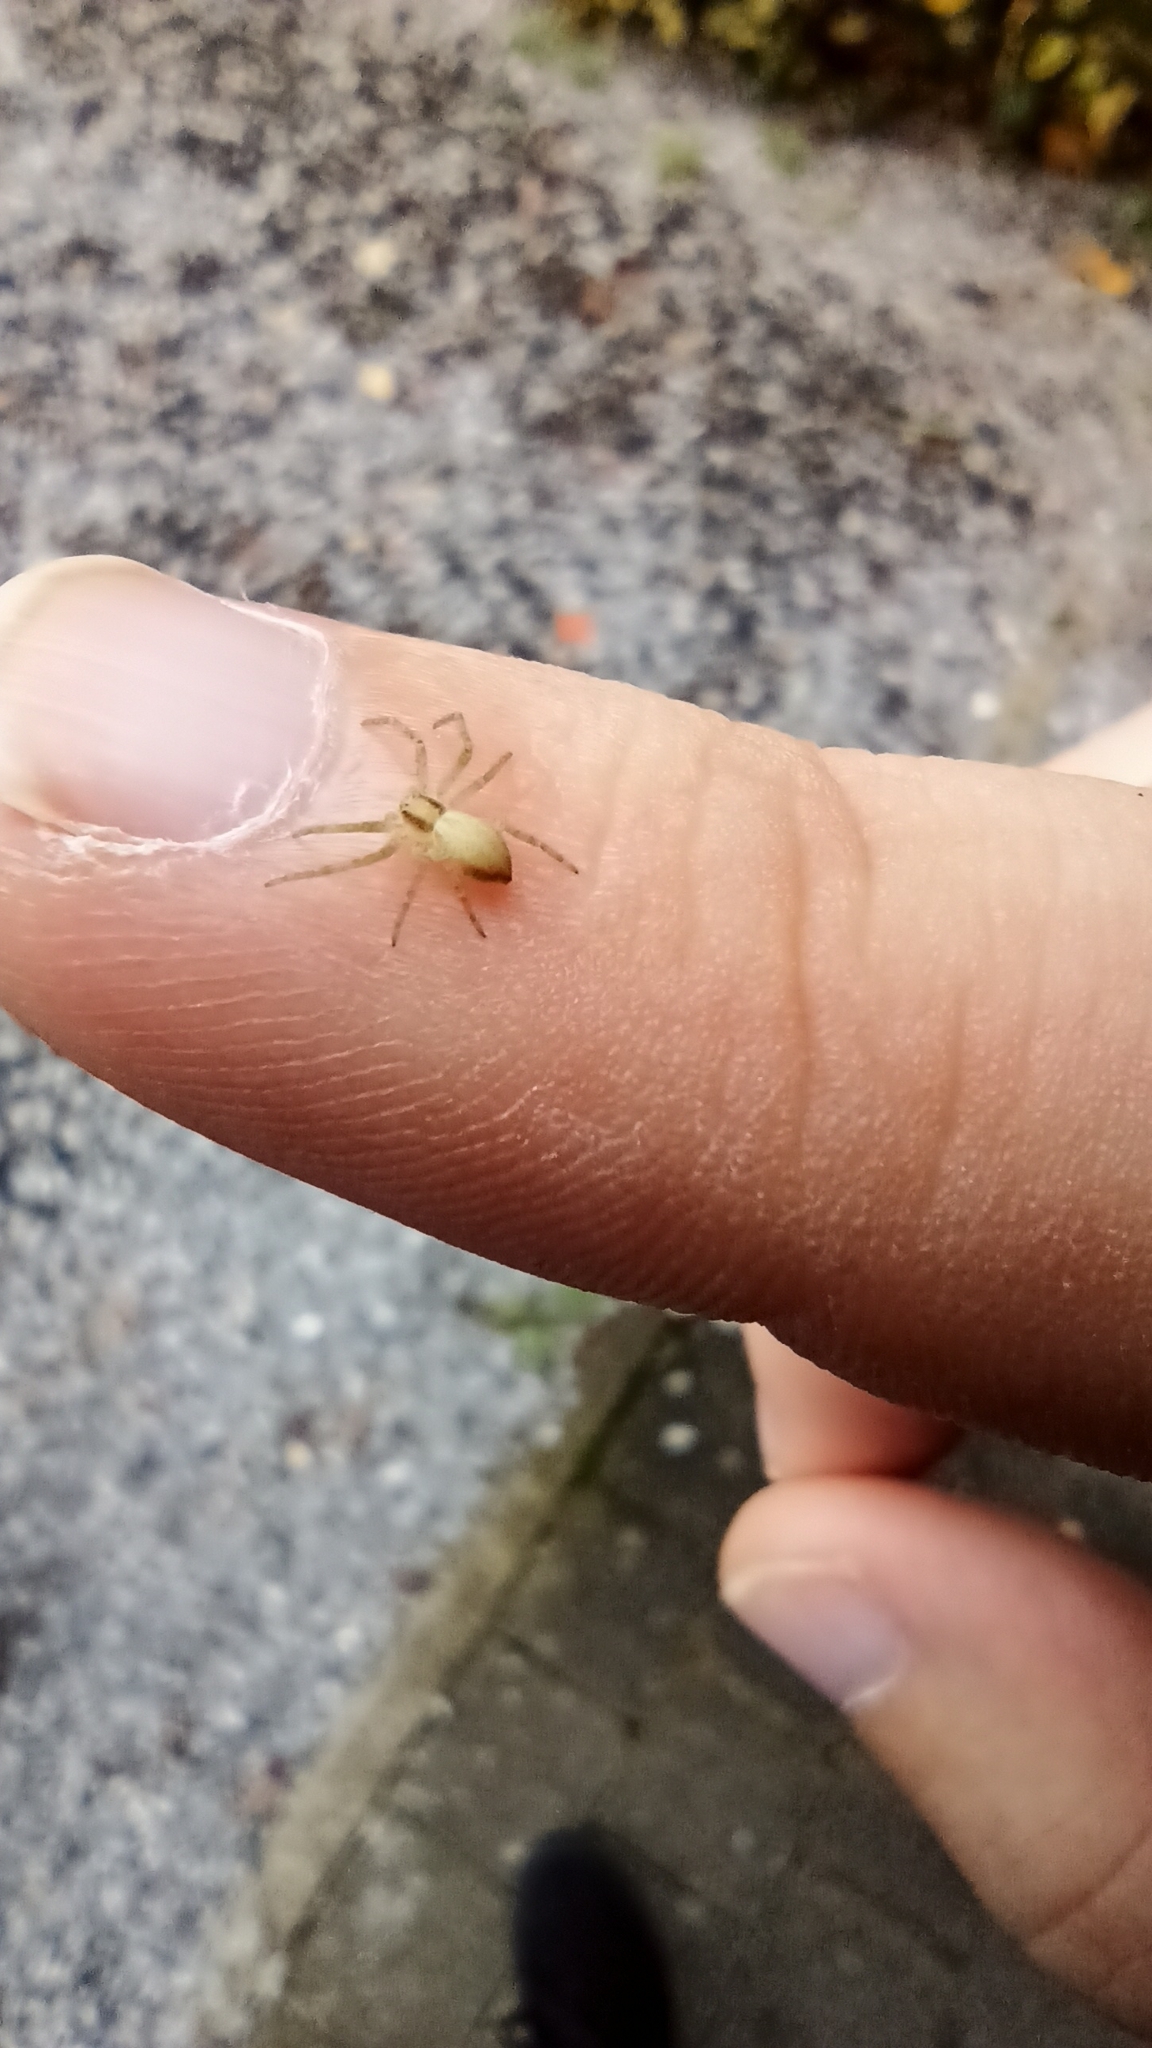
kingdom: Animalia
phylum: Arthropoda
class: Arachnida
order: Araneae
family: Philodromidae
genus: Philodromus
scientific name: Philodromus
